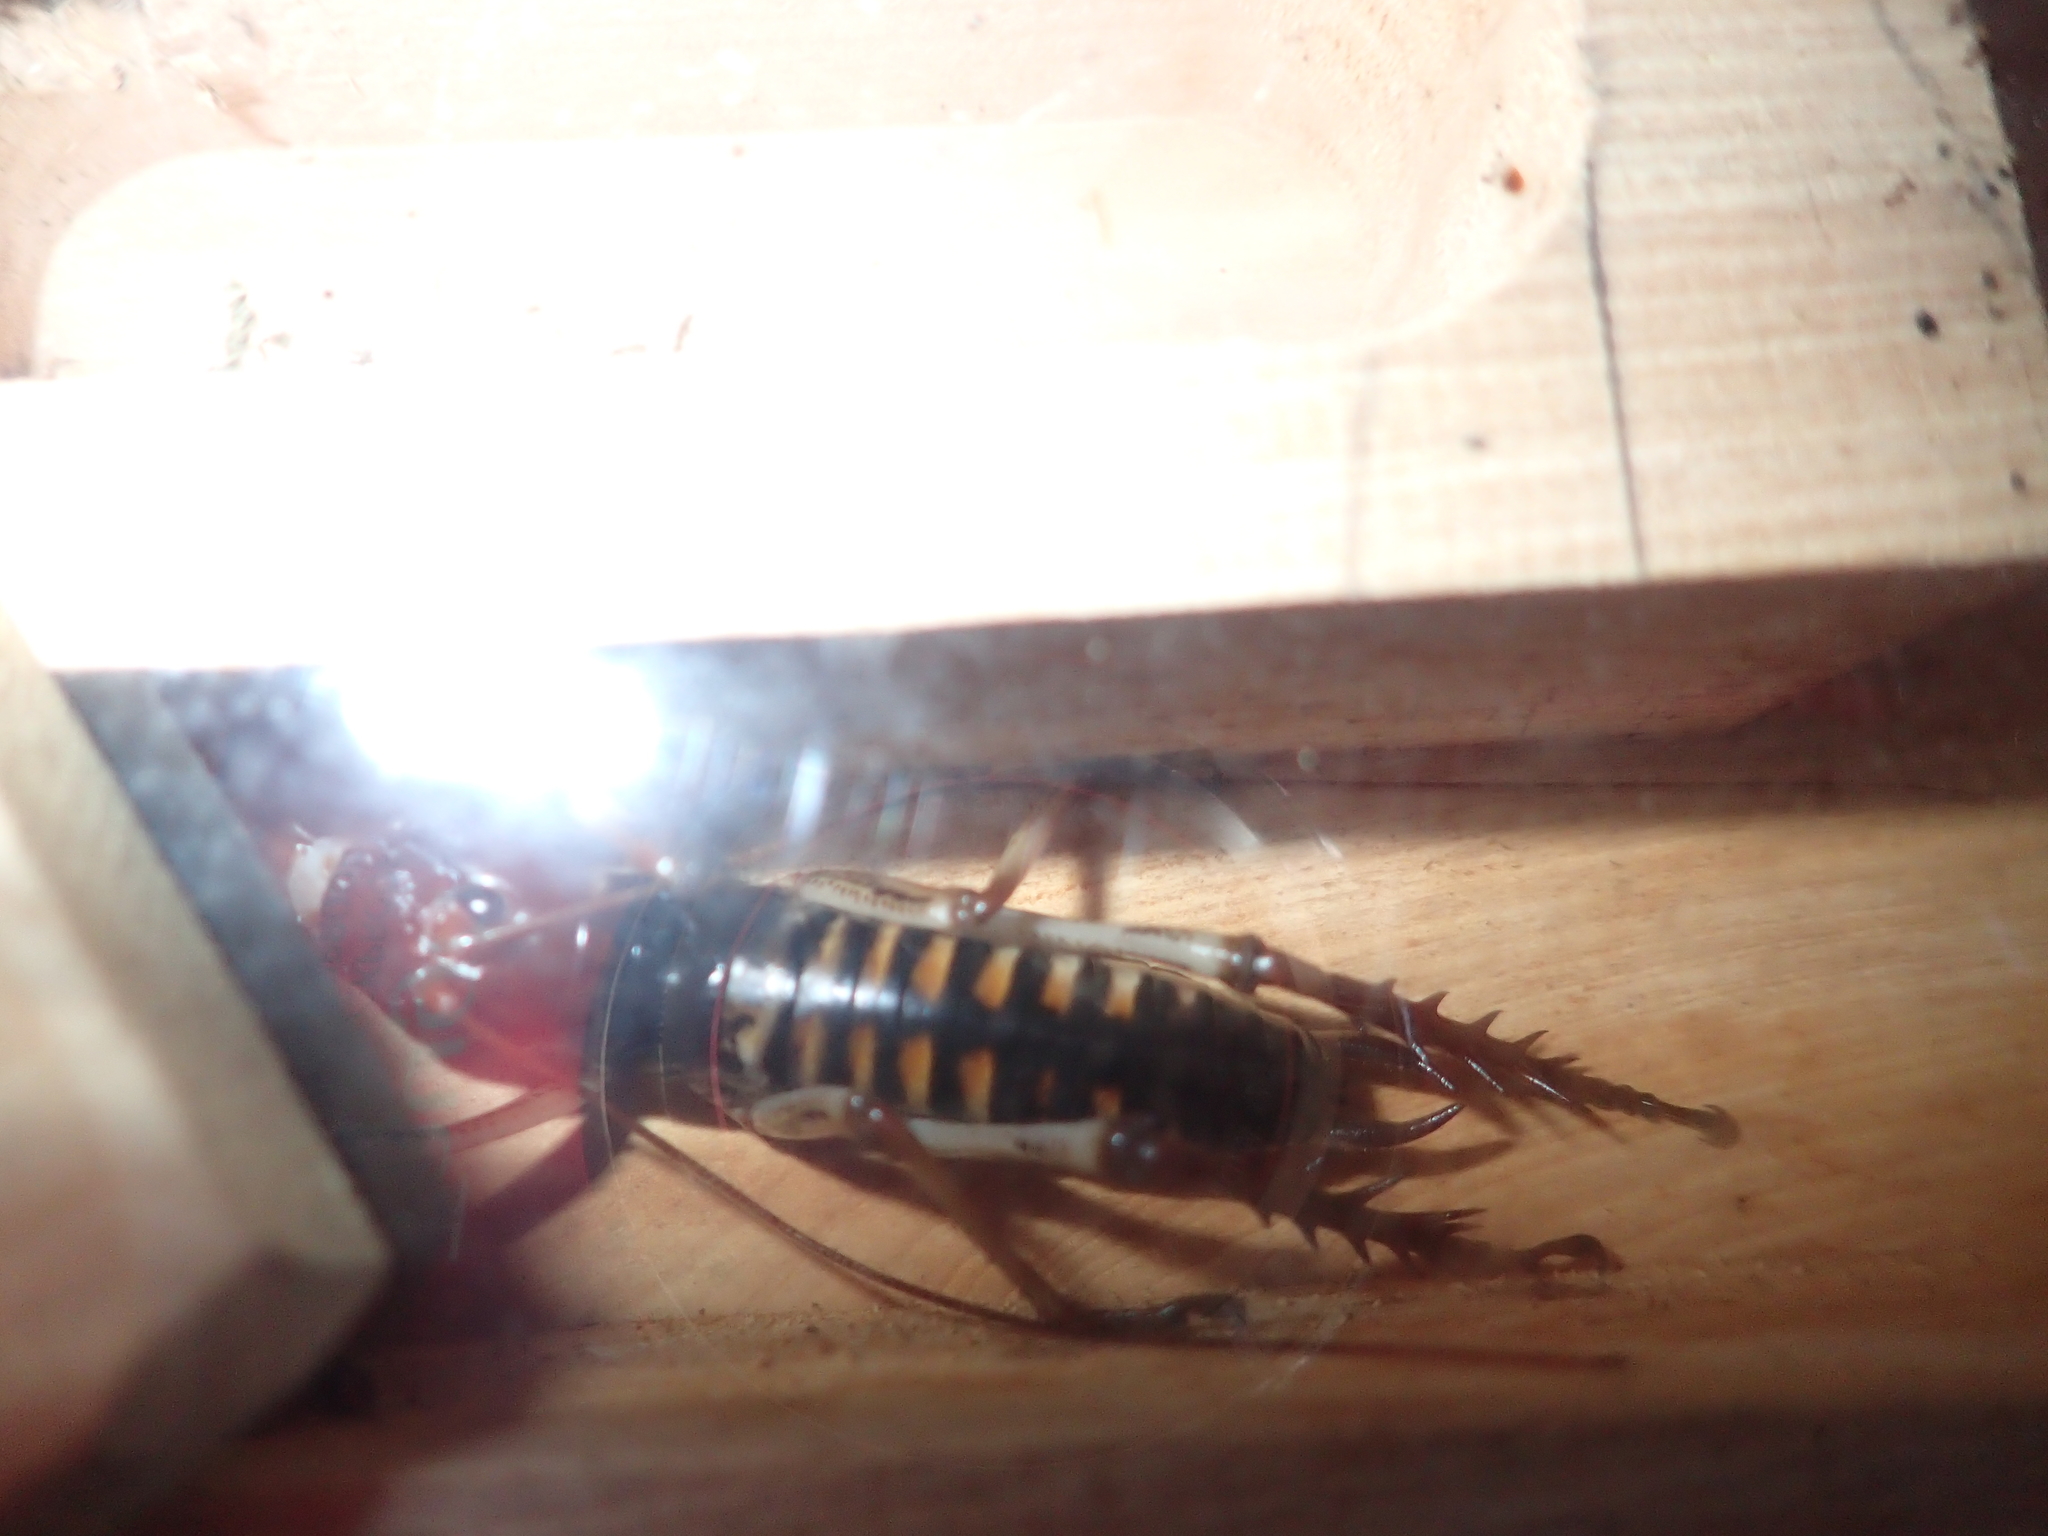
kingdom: Animalia
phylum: Arthropoda
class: Insecta
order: Orthoptera
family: Anostostomatidae
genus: Hemideina
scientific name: Hemideina crassidens
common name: Wellington tree weta
